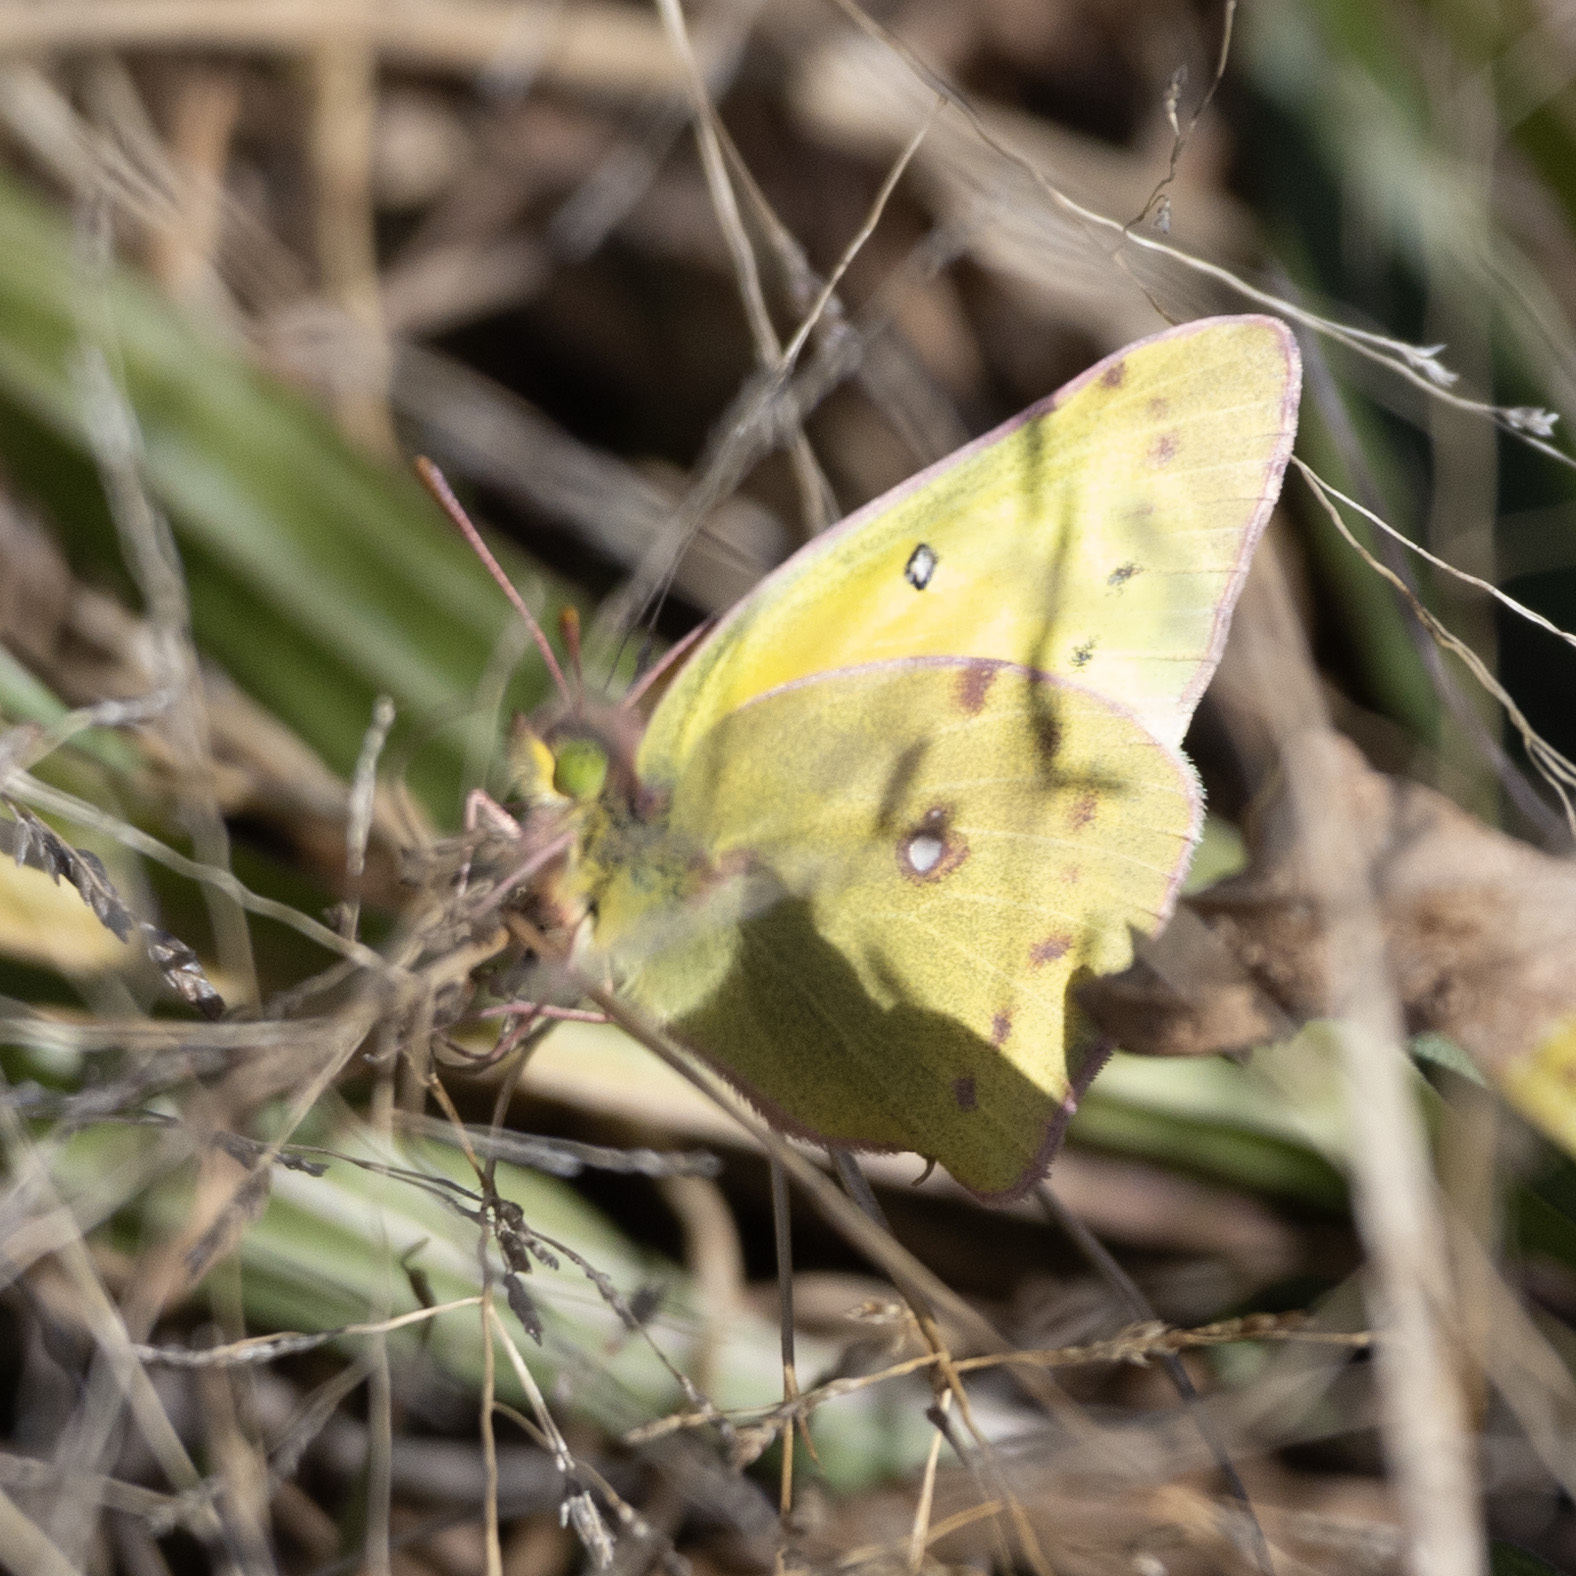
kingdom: Animalia
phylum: Arthropoda
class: Insecta
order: Lepidoptera
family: Pieridae
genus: Colias
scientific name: Colias eurytheme
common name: Alfalfa butterfly
